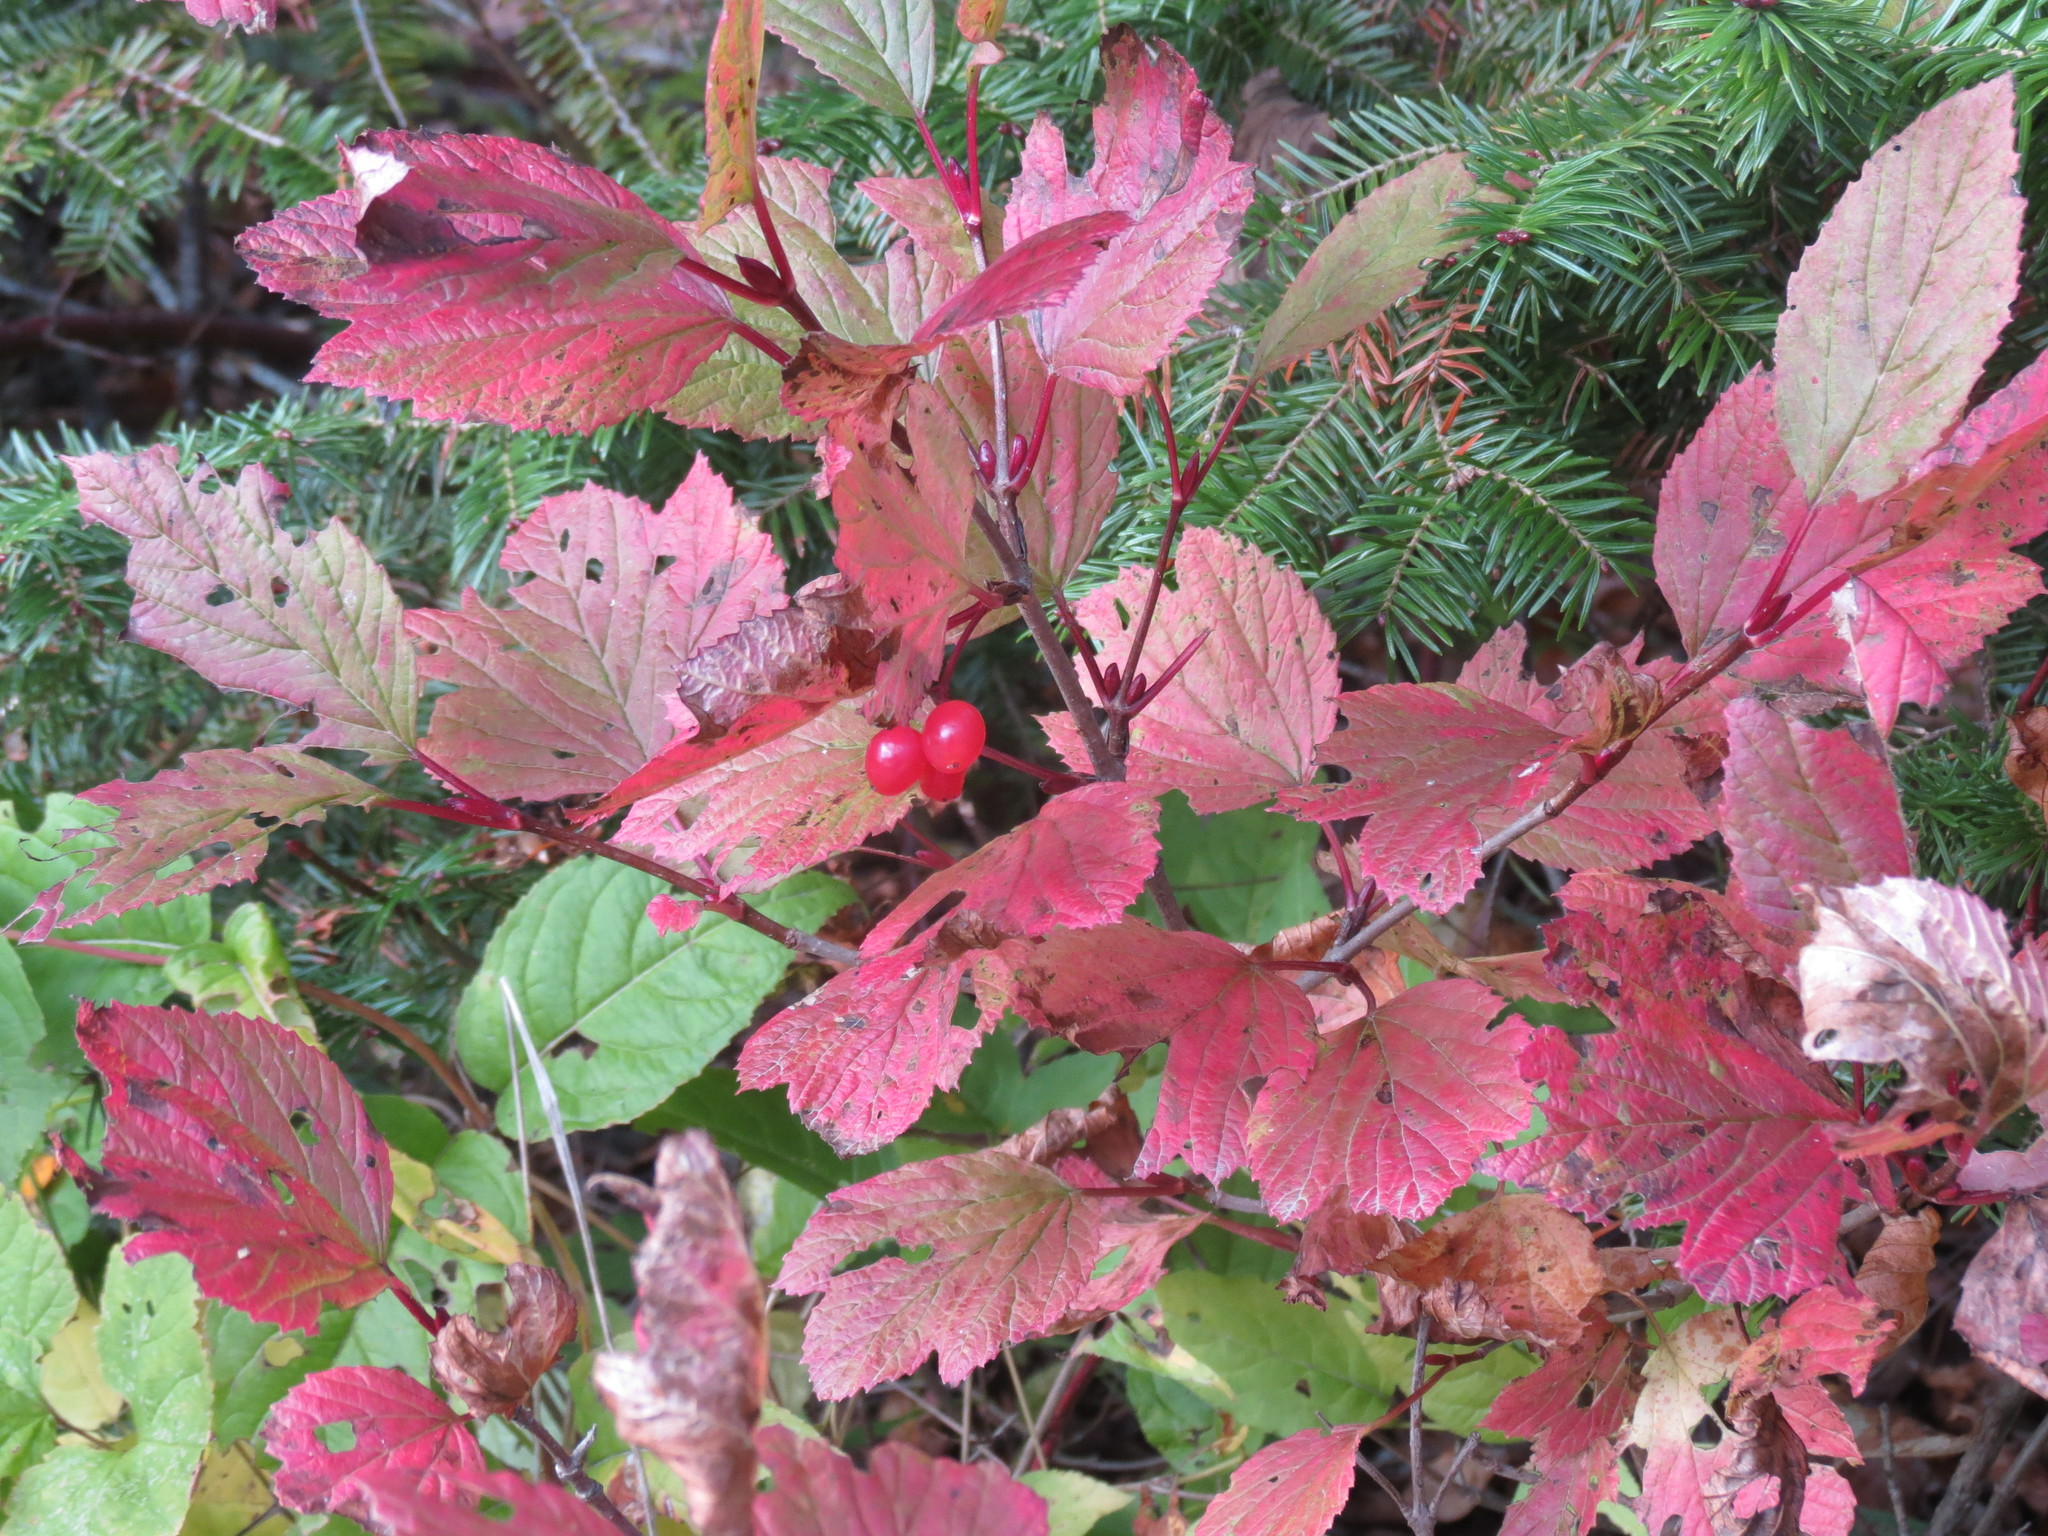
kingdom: Plantae
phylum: Tracheophyta
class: Magnoliopsida
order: Dipsacales
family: Viburnaceae
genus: Viburnum
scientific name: Viburnum edule
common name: Mooseberry
